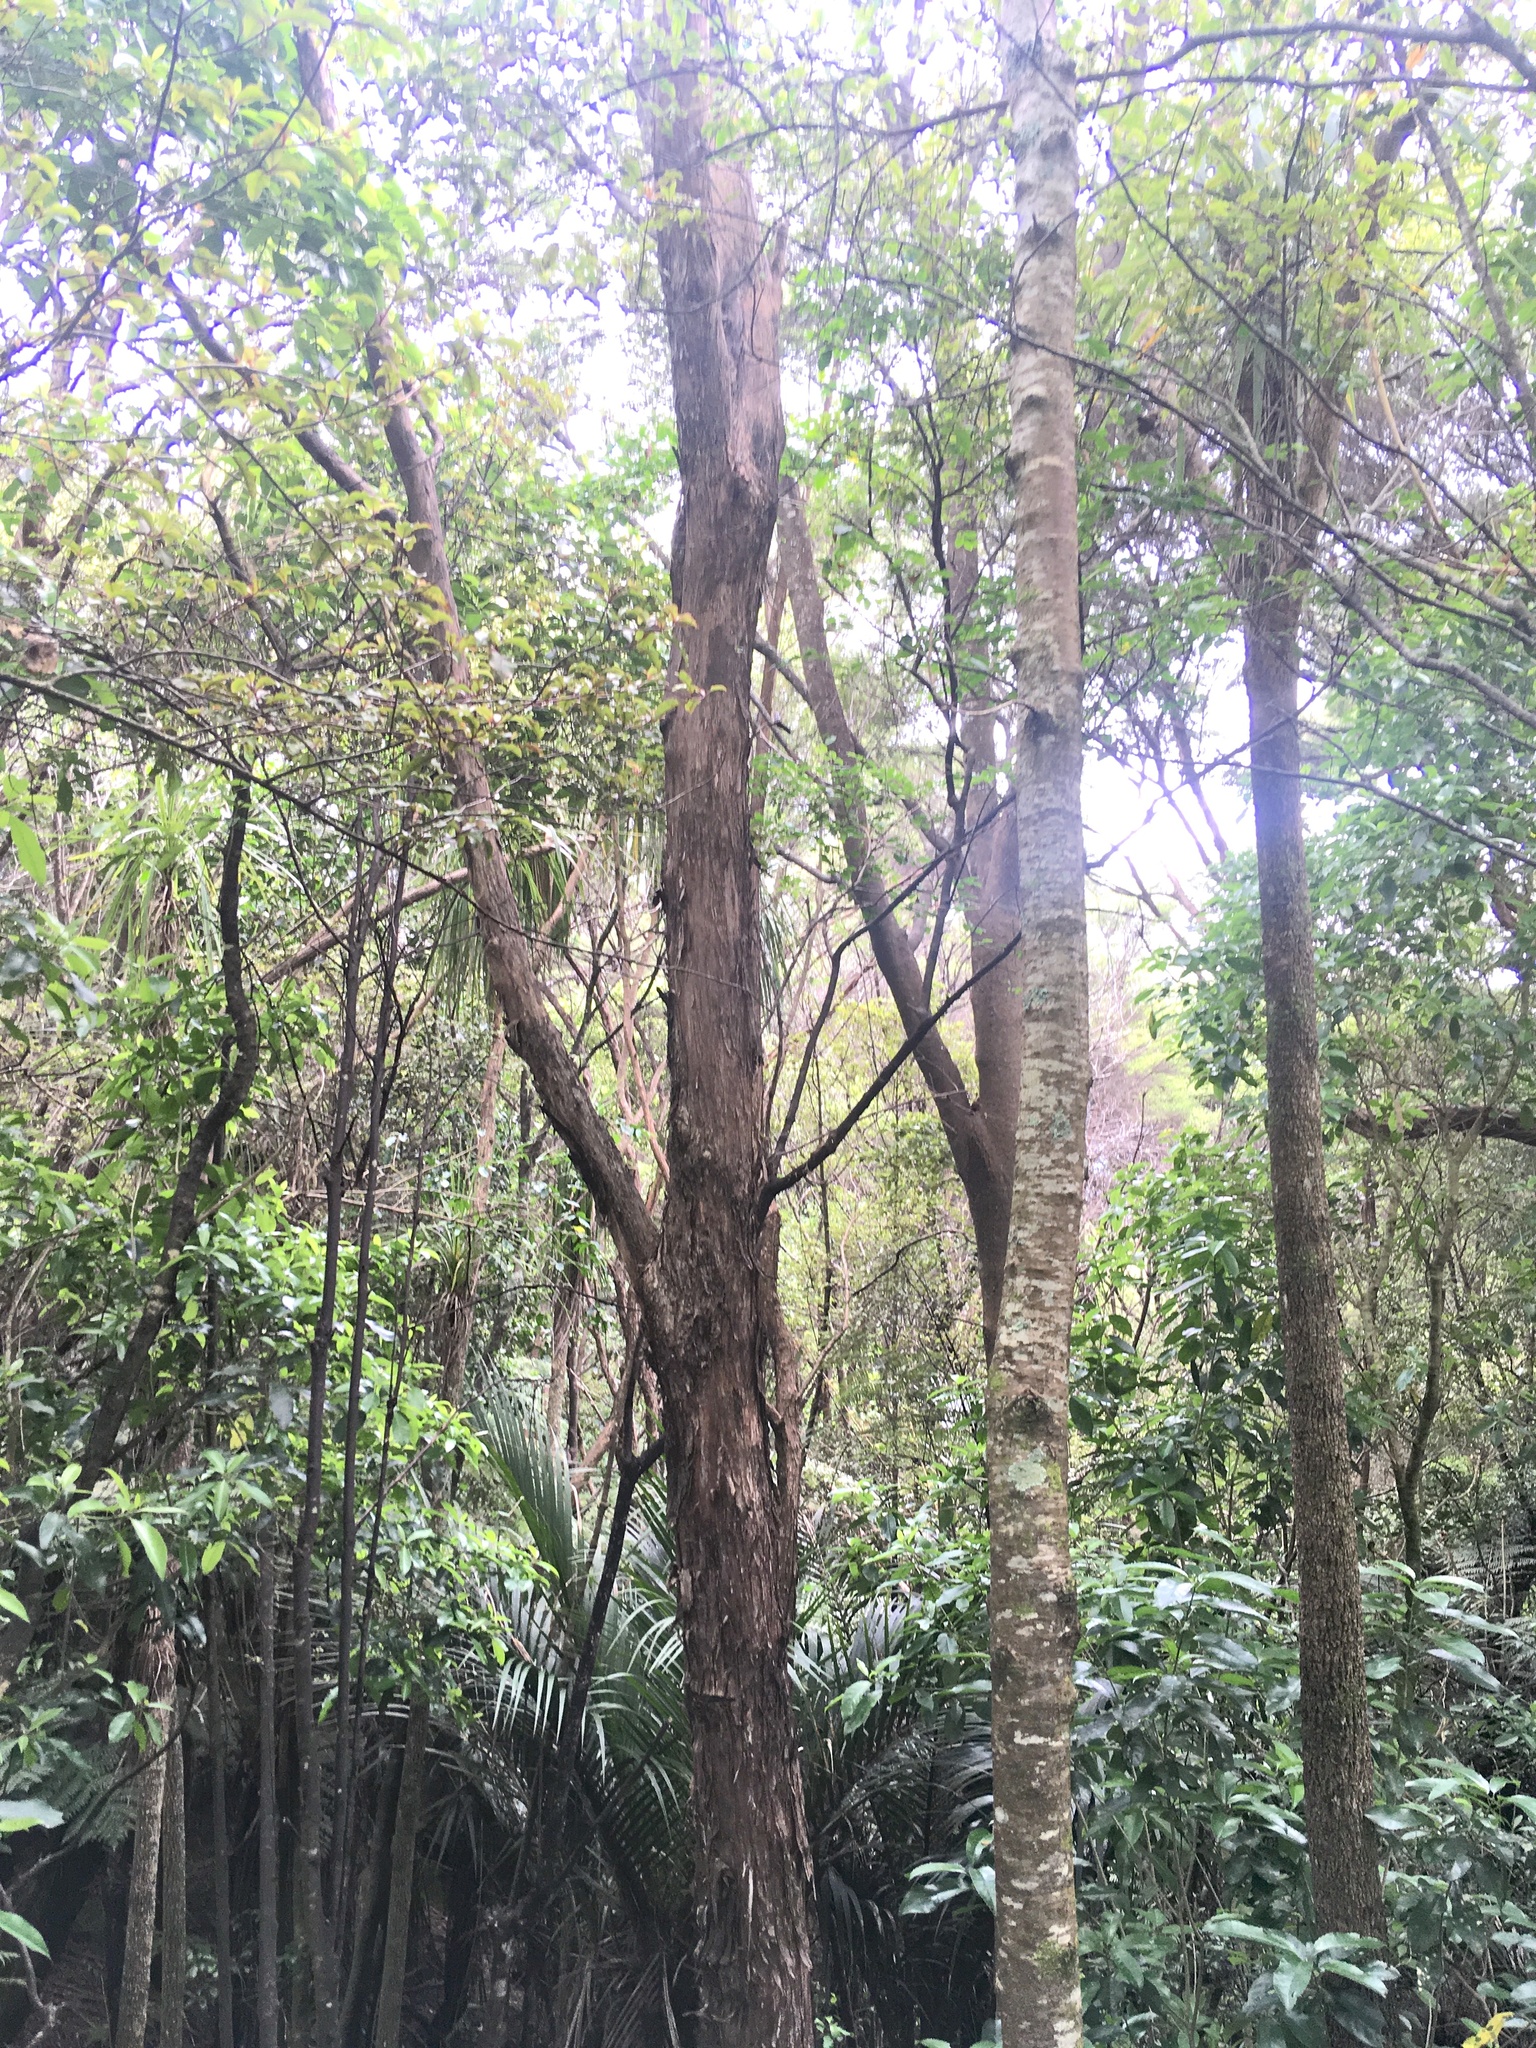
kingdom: Plantae
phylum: Tracheophyta
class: Magnoliopsida
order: Myrtales
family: Myrtaceae
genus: Kunzea
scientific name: Kunzea robusta
